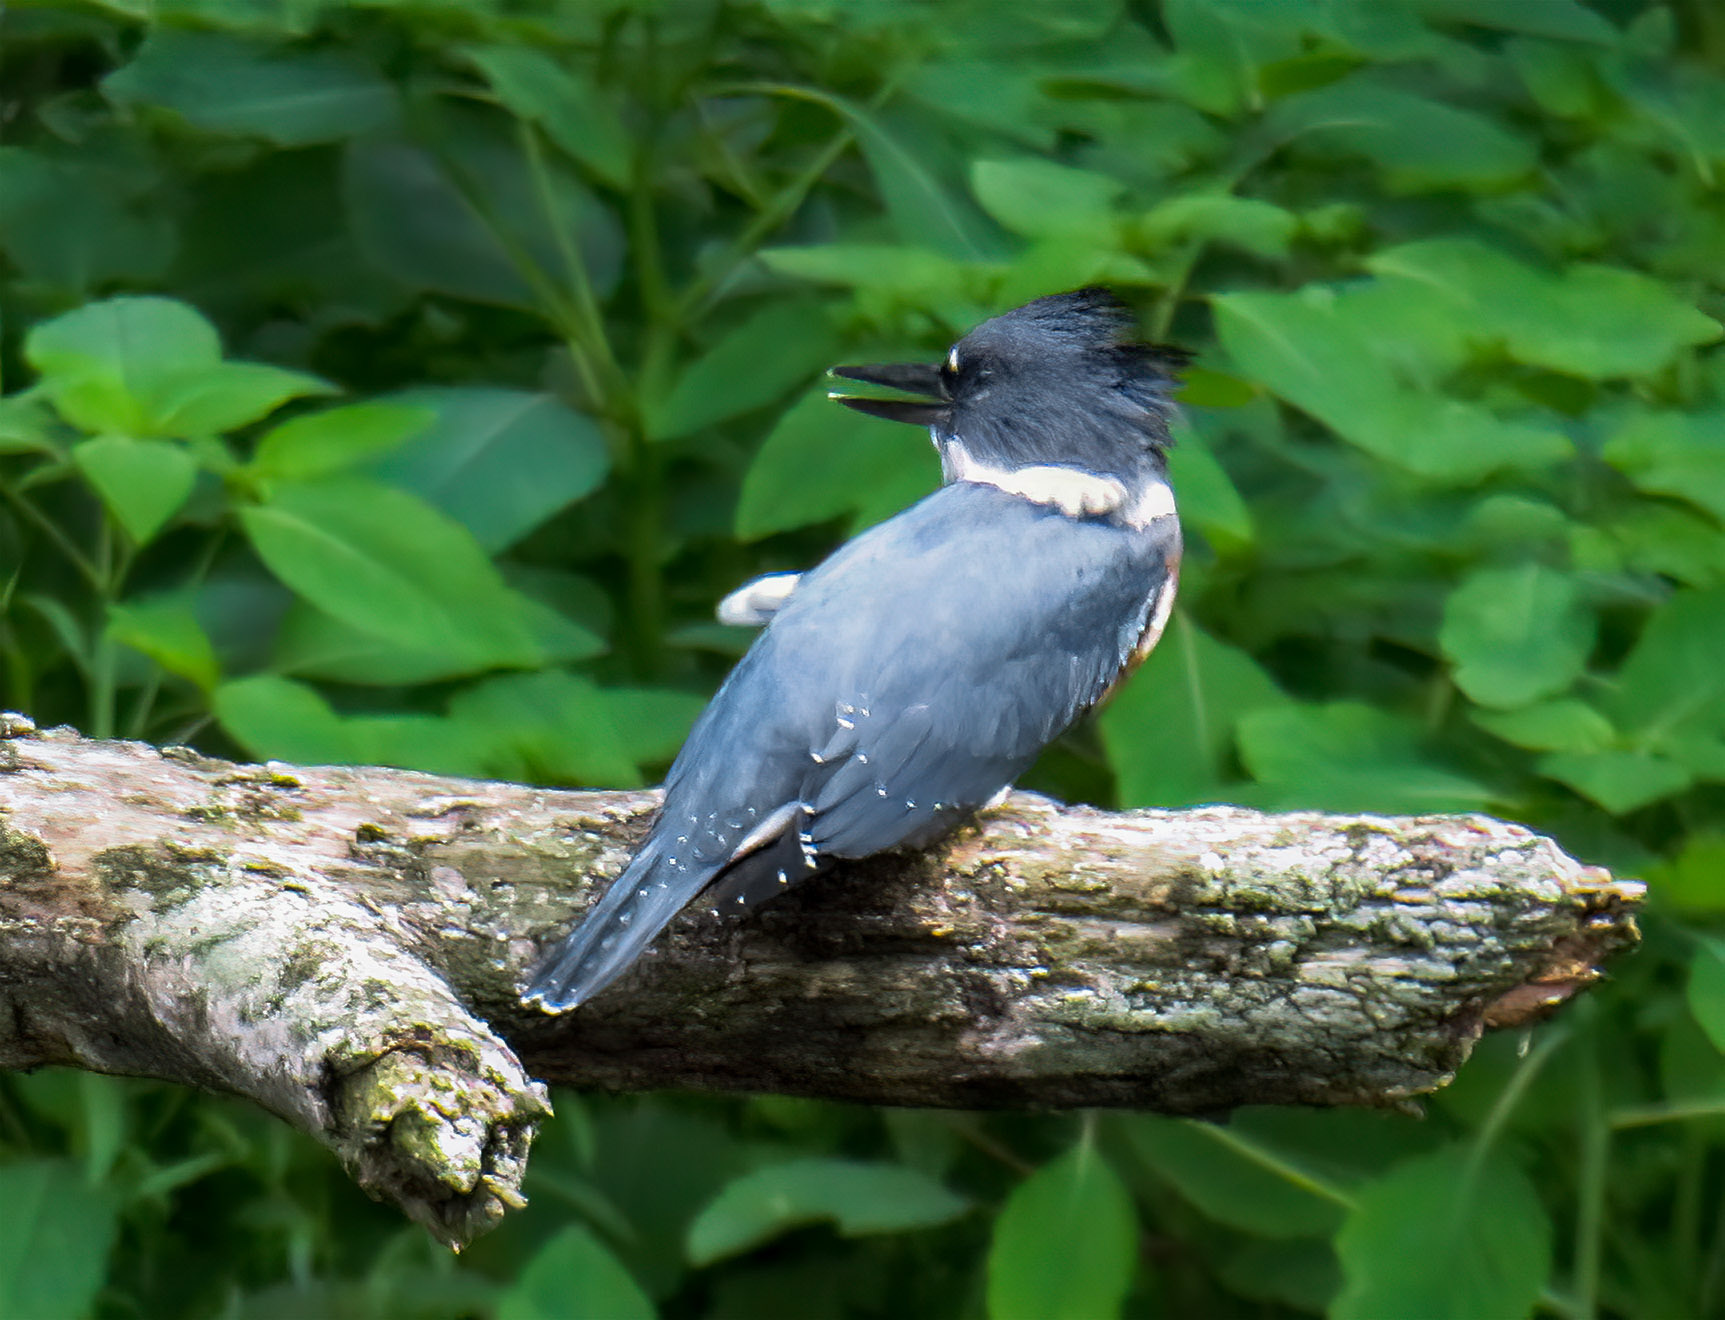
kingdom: Animalia
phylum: Chordata
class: Aves
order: Coraciiformes
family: Alcedinidae
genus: Megaceryle
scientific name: Megaceryle alcyon
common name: Belted kingfisher
